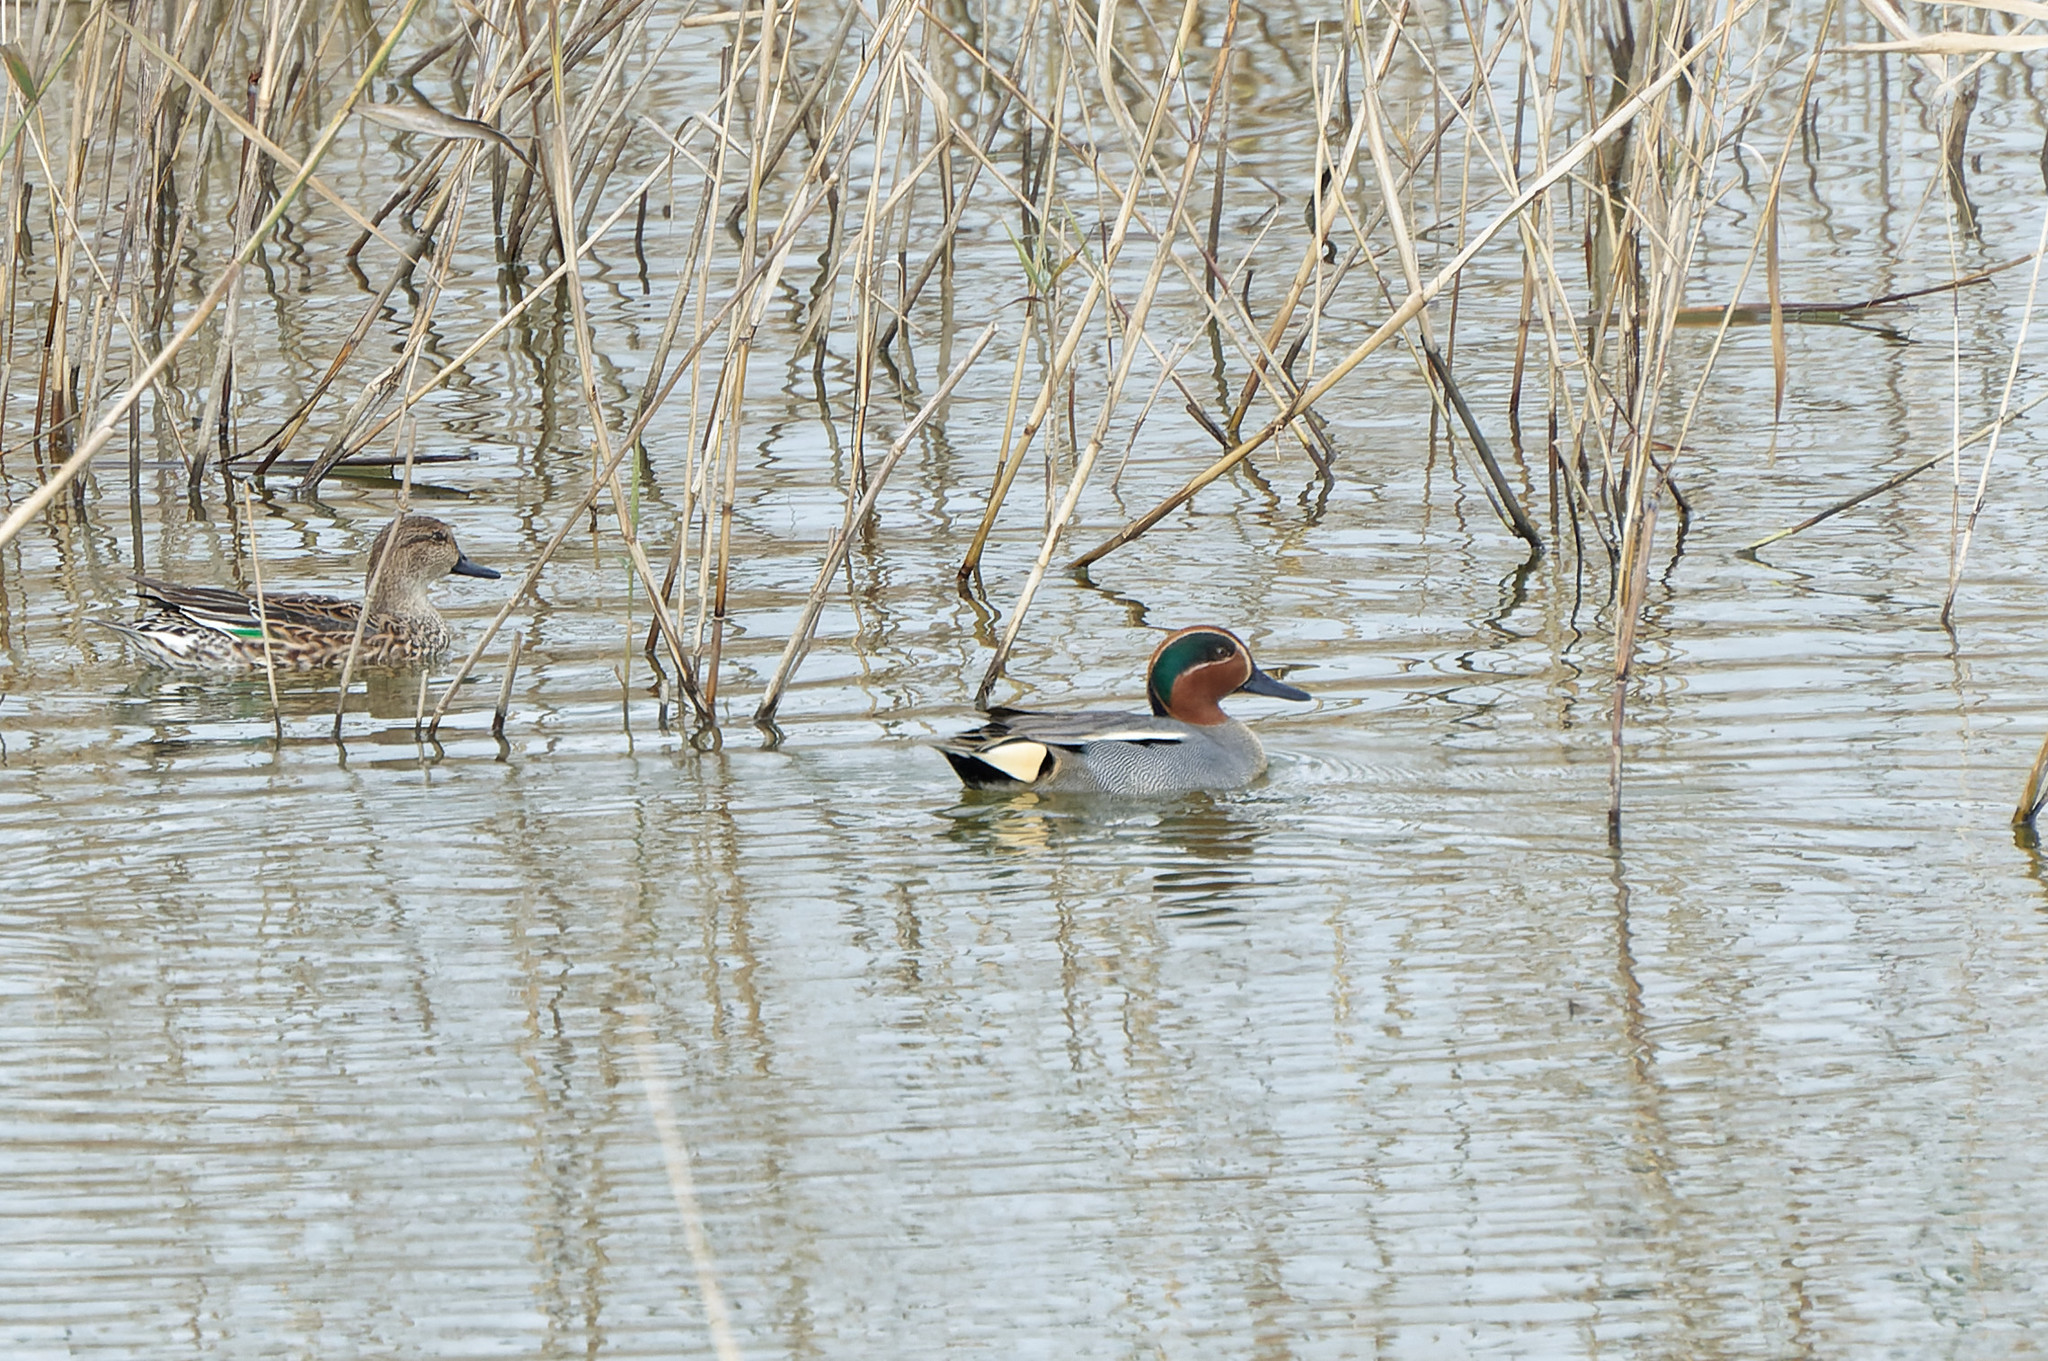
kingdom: Animalia
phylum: Chordata
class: Aves
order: Anseriformes
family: Anatidae
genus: Anas
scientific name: Anas crecca
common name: Eurasian teal
